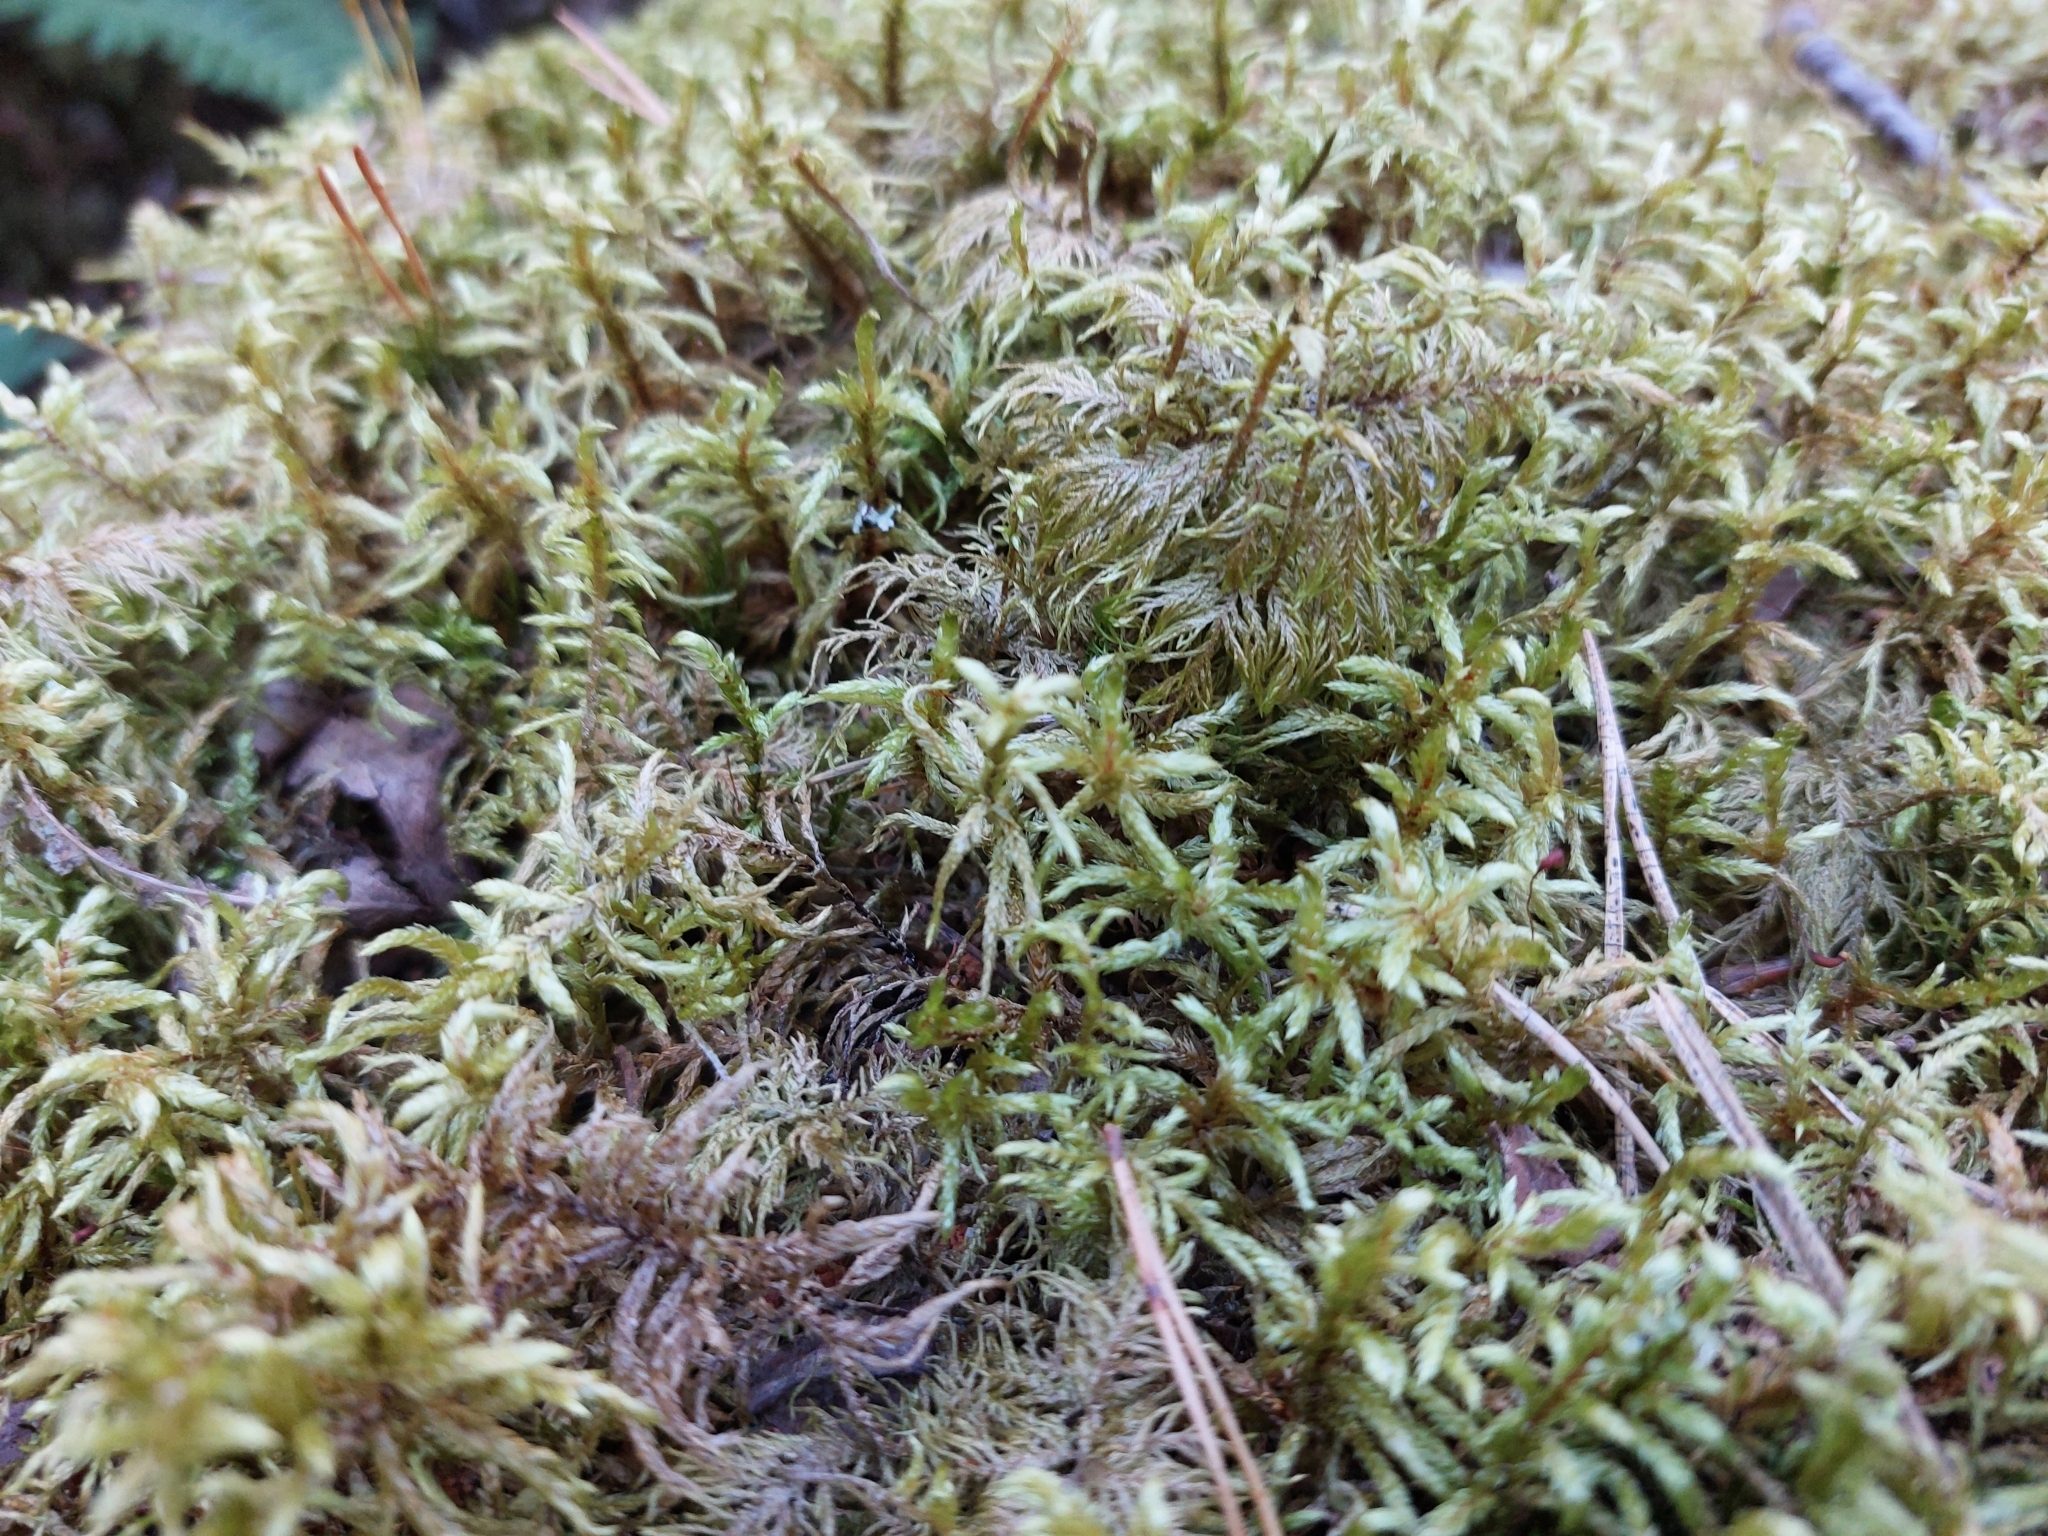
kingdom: Plantae
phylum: Bryophyta
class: Bryopsida
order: Hypnales
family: Hylocomiaceae
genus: Pleurozium
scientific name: Pleurozium schreberi
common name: Red-stemmed feather moss
